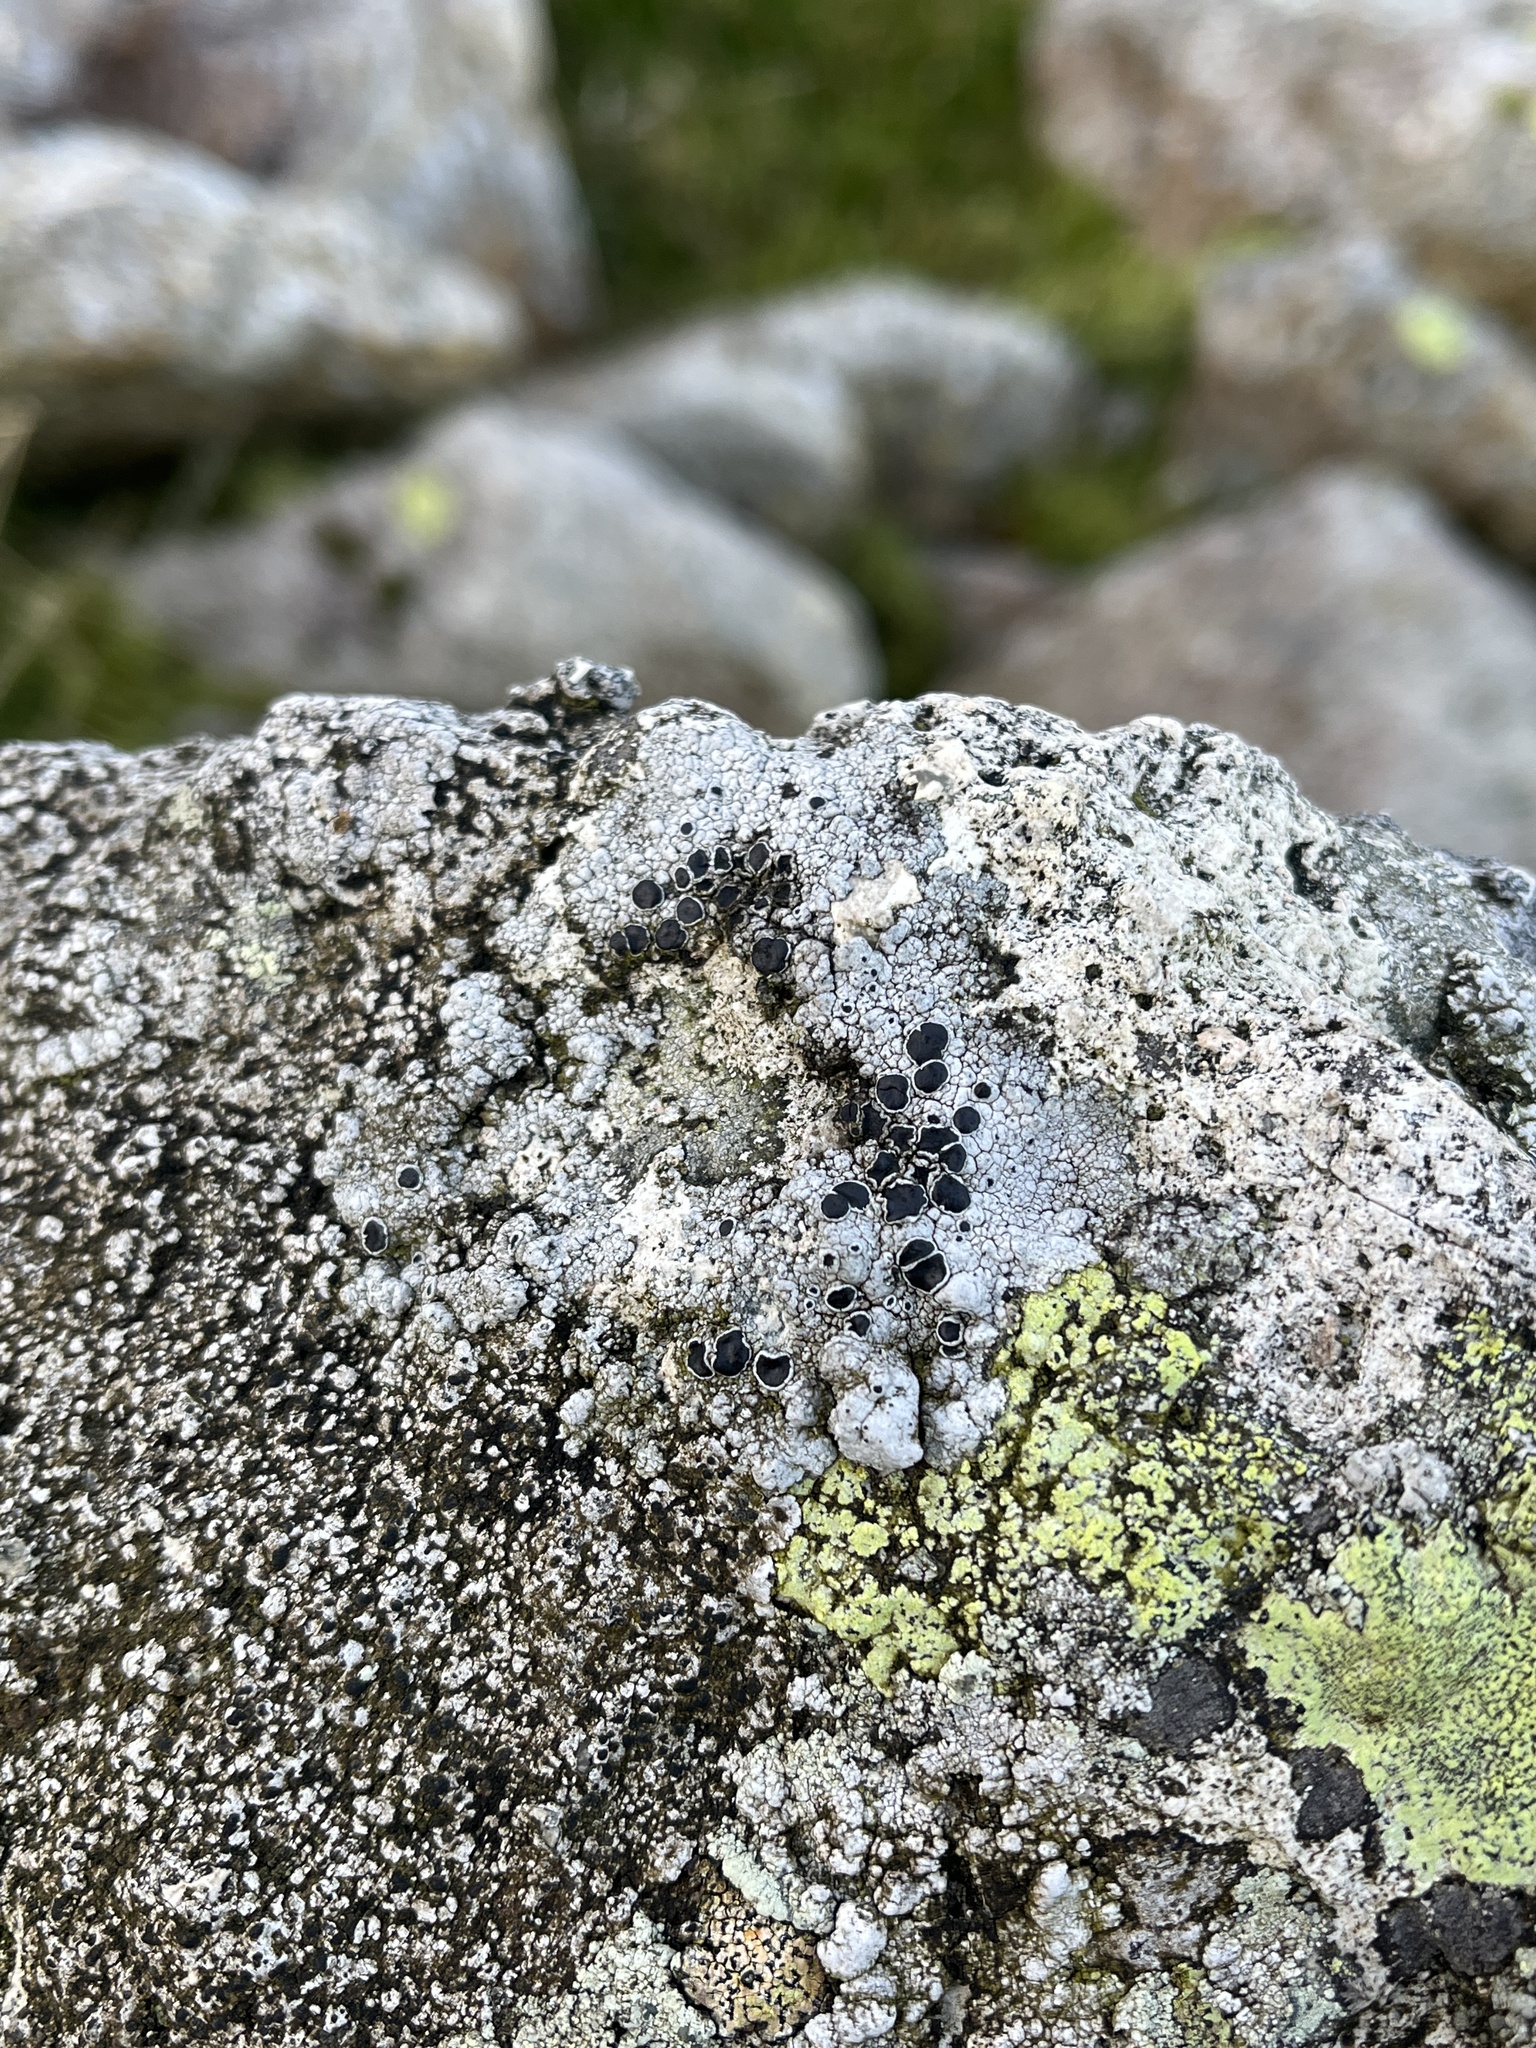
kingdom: Fungi
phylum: Ascomycota
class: Lecanoromycetes
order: Lecanorales
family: Tephromelataceae
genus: Tephromela
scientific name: Tephromela atra
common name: Black shields
